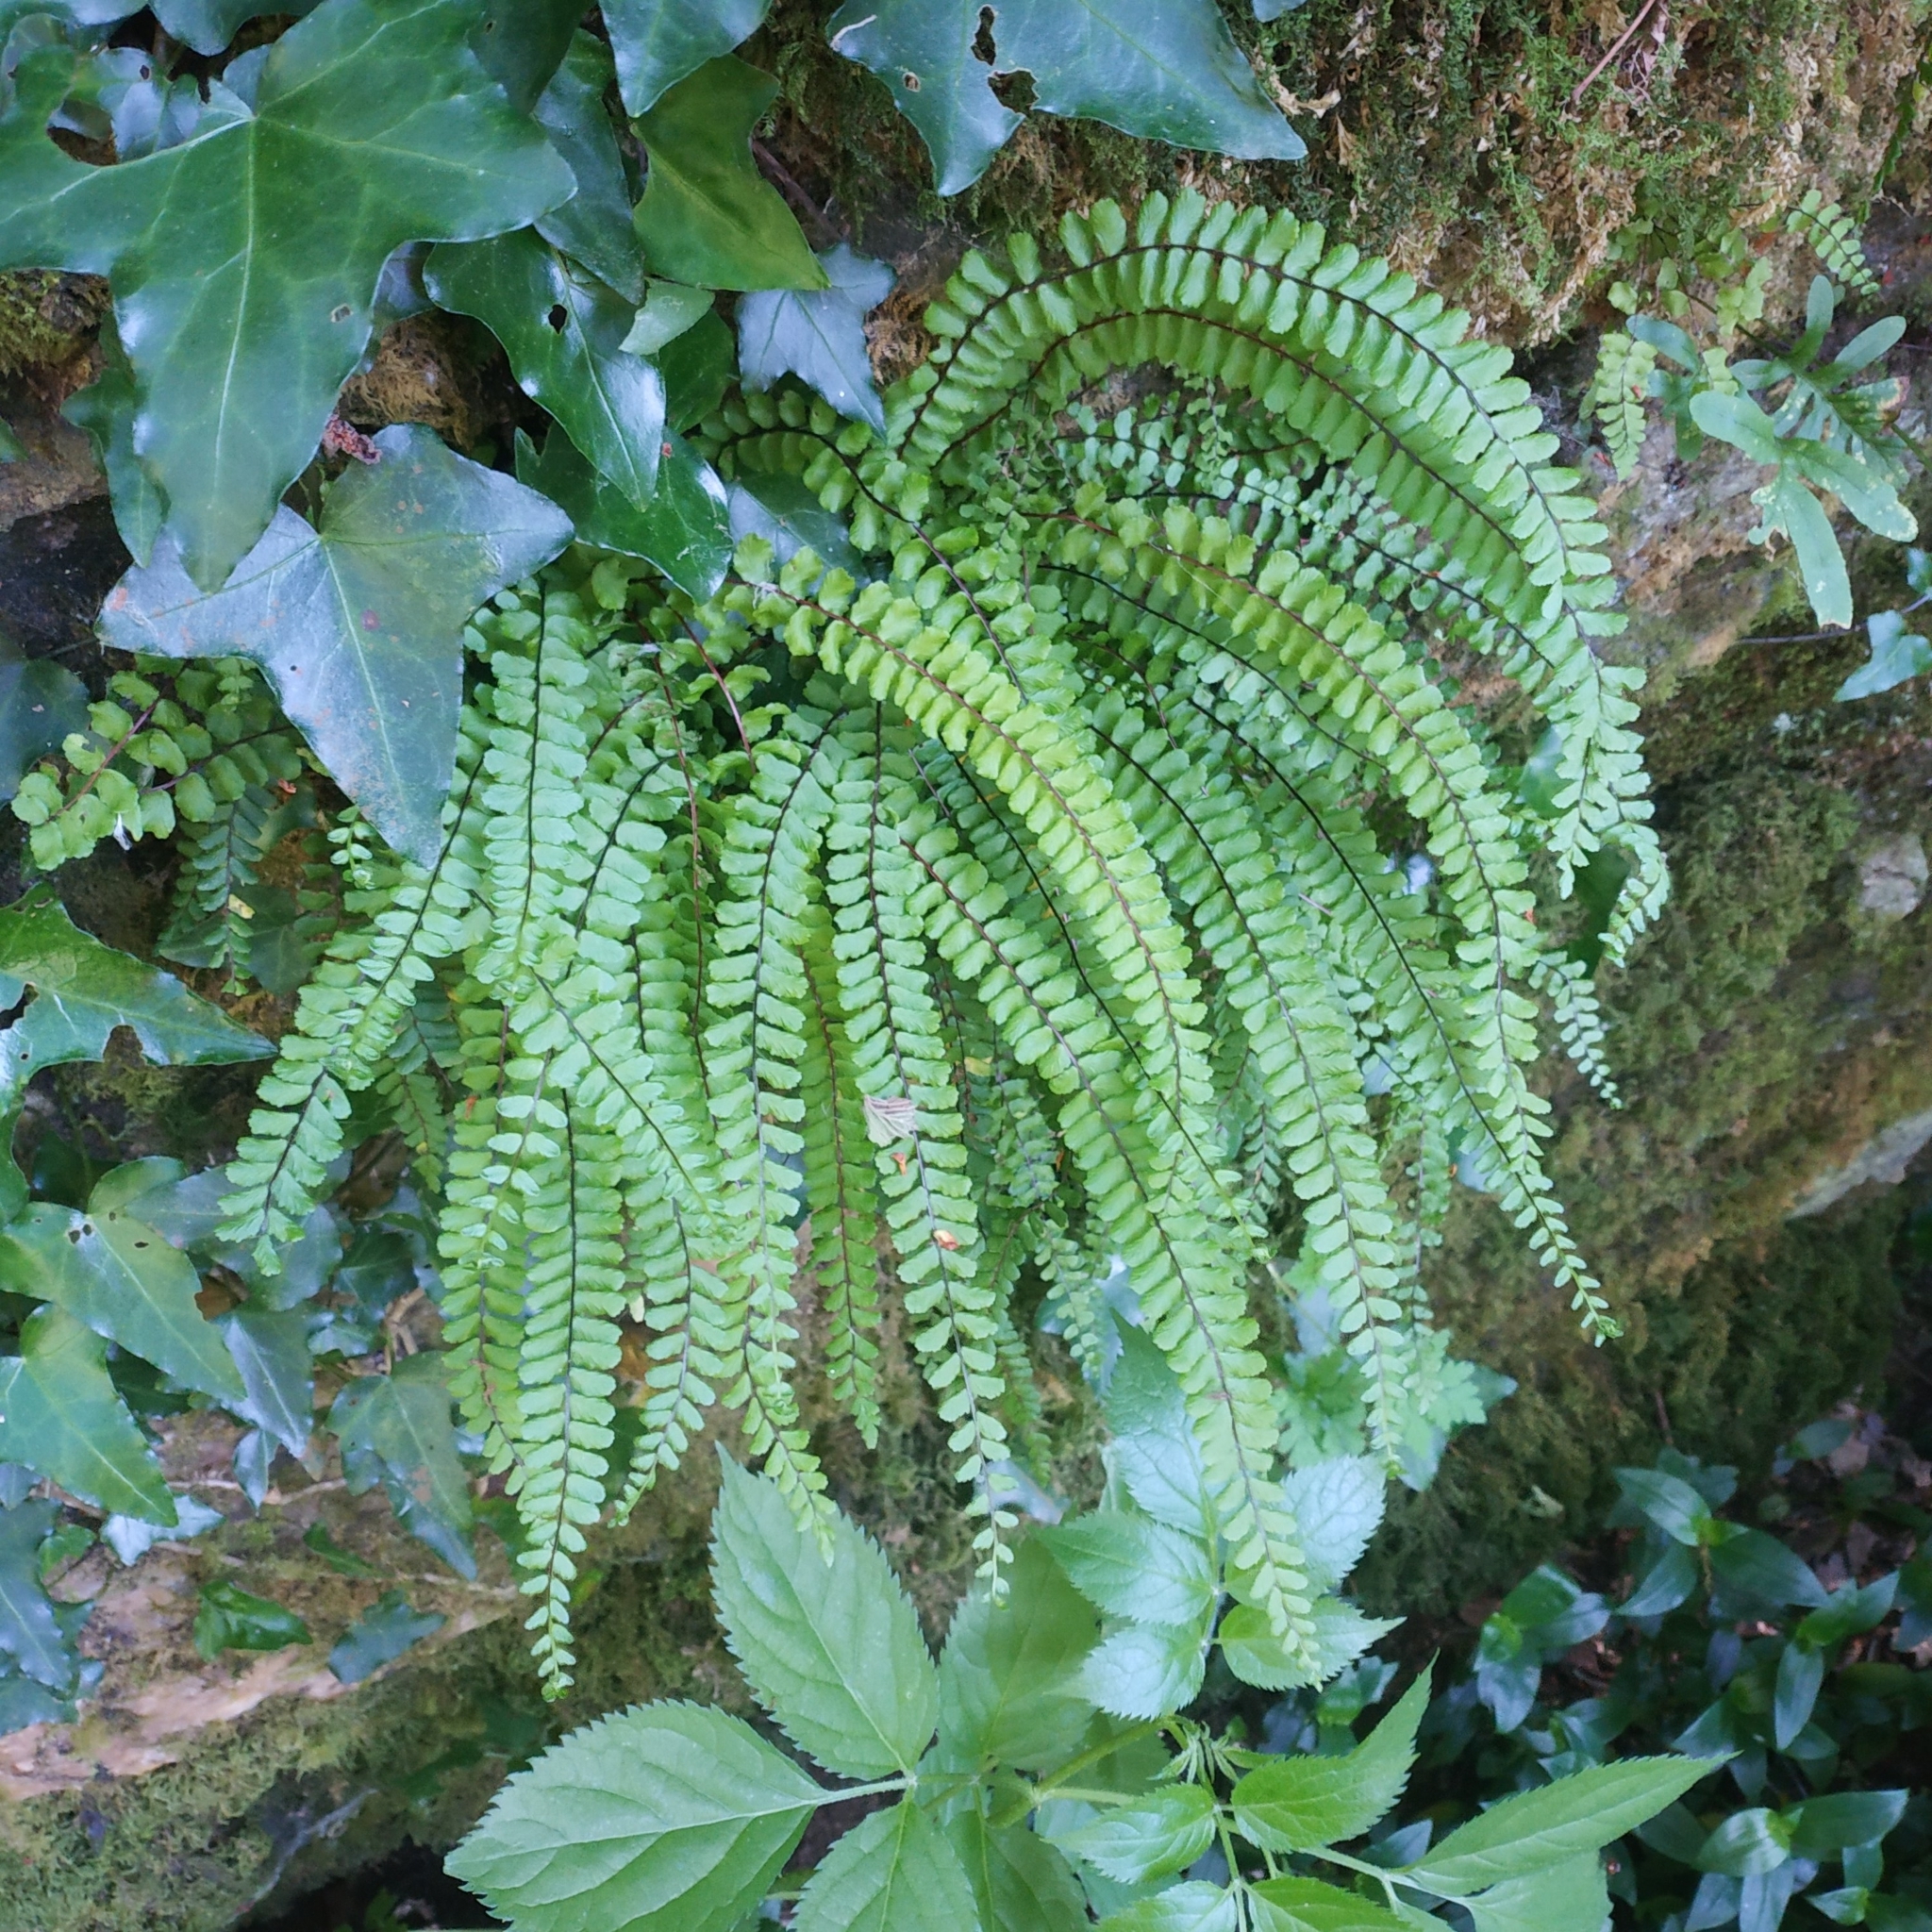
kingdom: Plantae
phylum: Tracheophyta
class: Polypodiopsida
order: Polypodiales
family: Aspleniaceae
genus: Asplenium
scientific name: Asplenium trichomanes
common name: Maidenhair spleenwort
